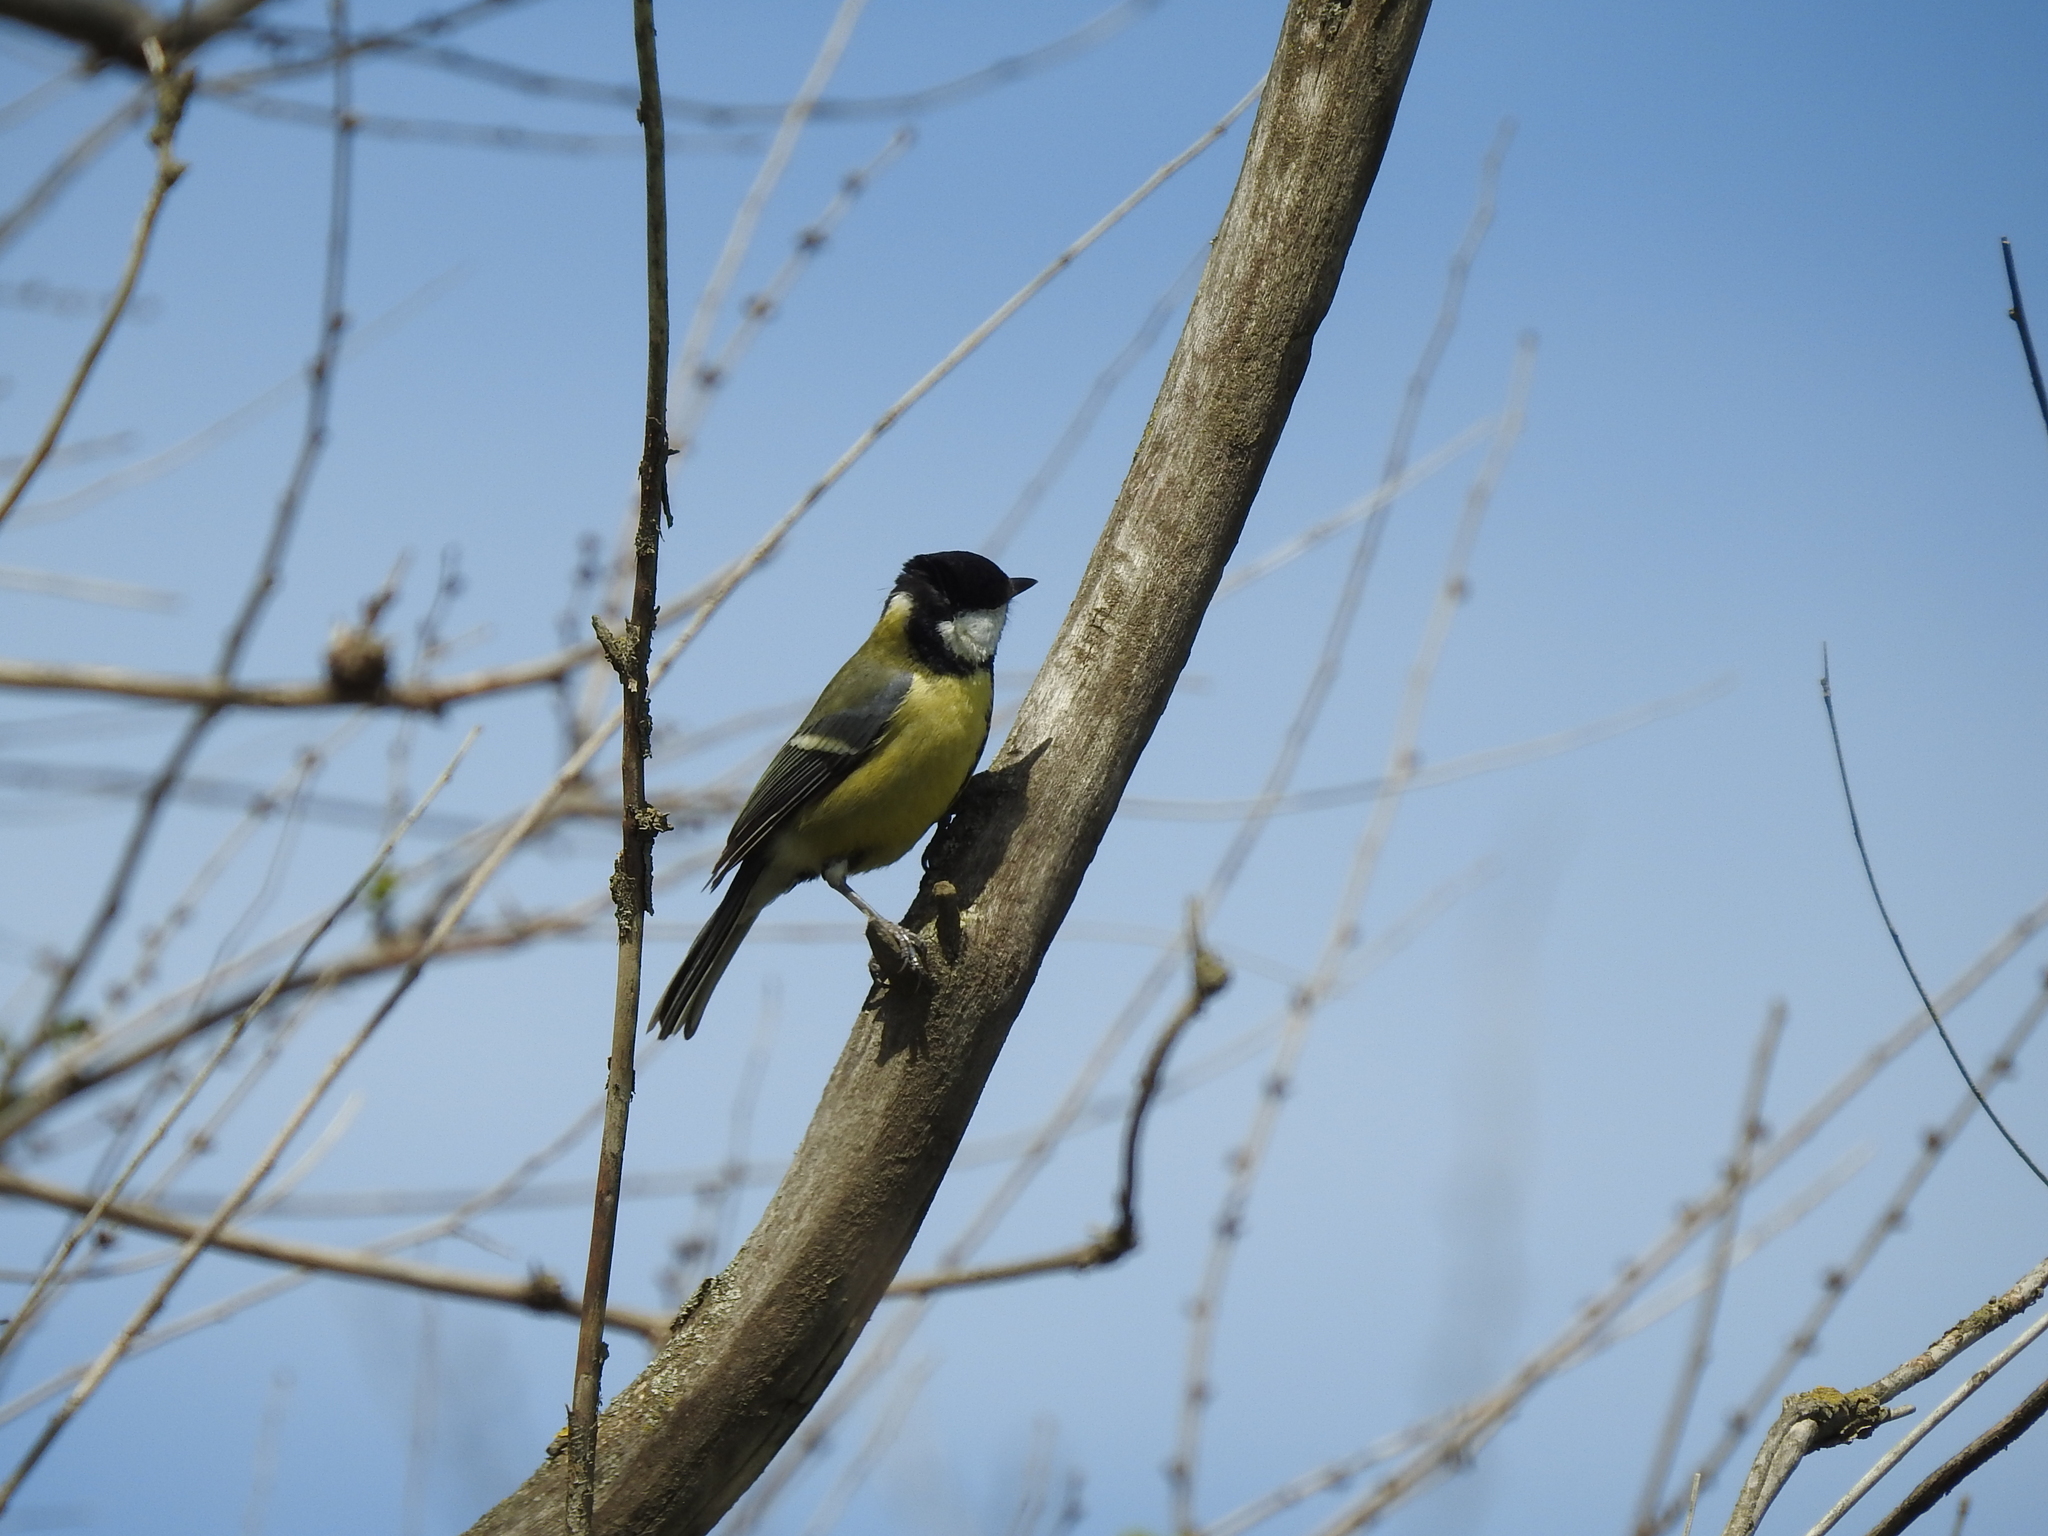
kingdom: Animalia
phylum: Chordata
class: Aves
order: Passeriformes
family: Paridae
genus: Parus
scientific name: Parus major
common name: Great tit
